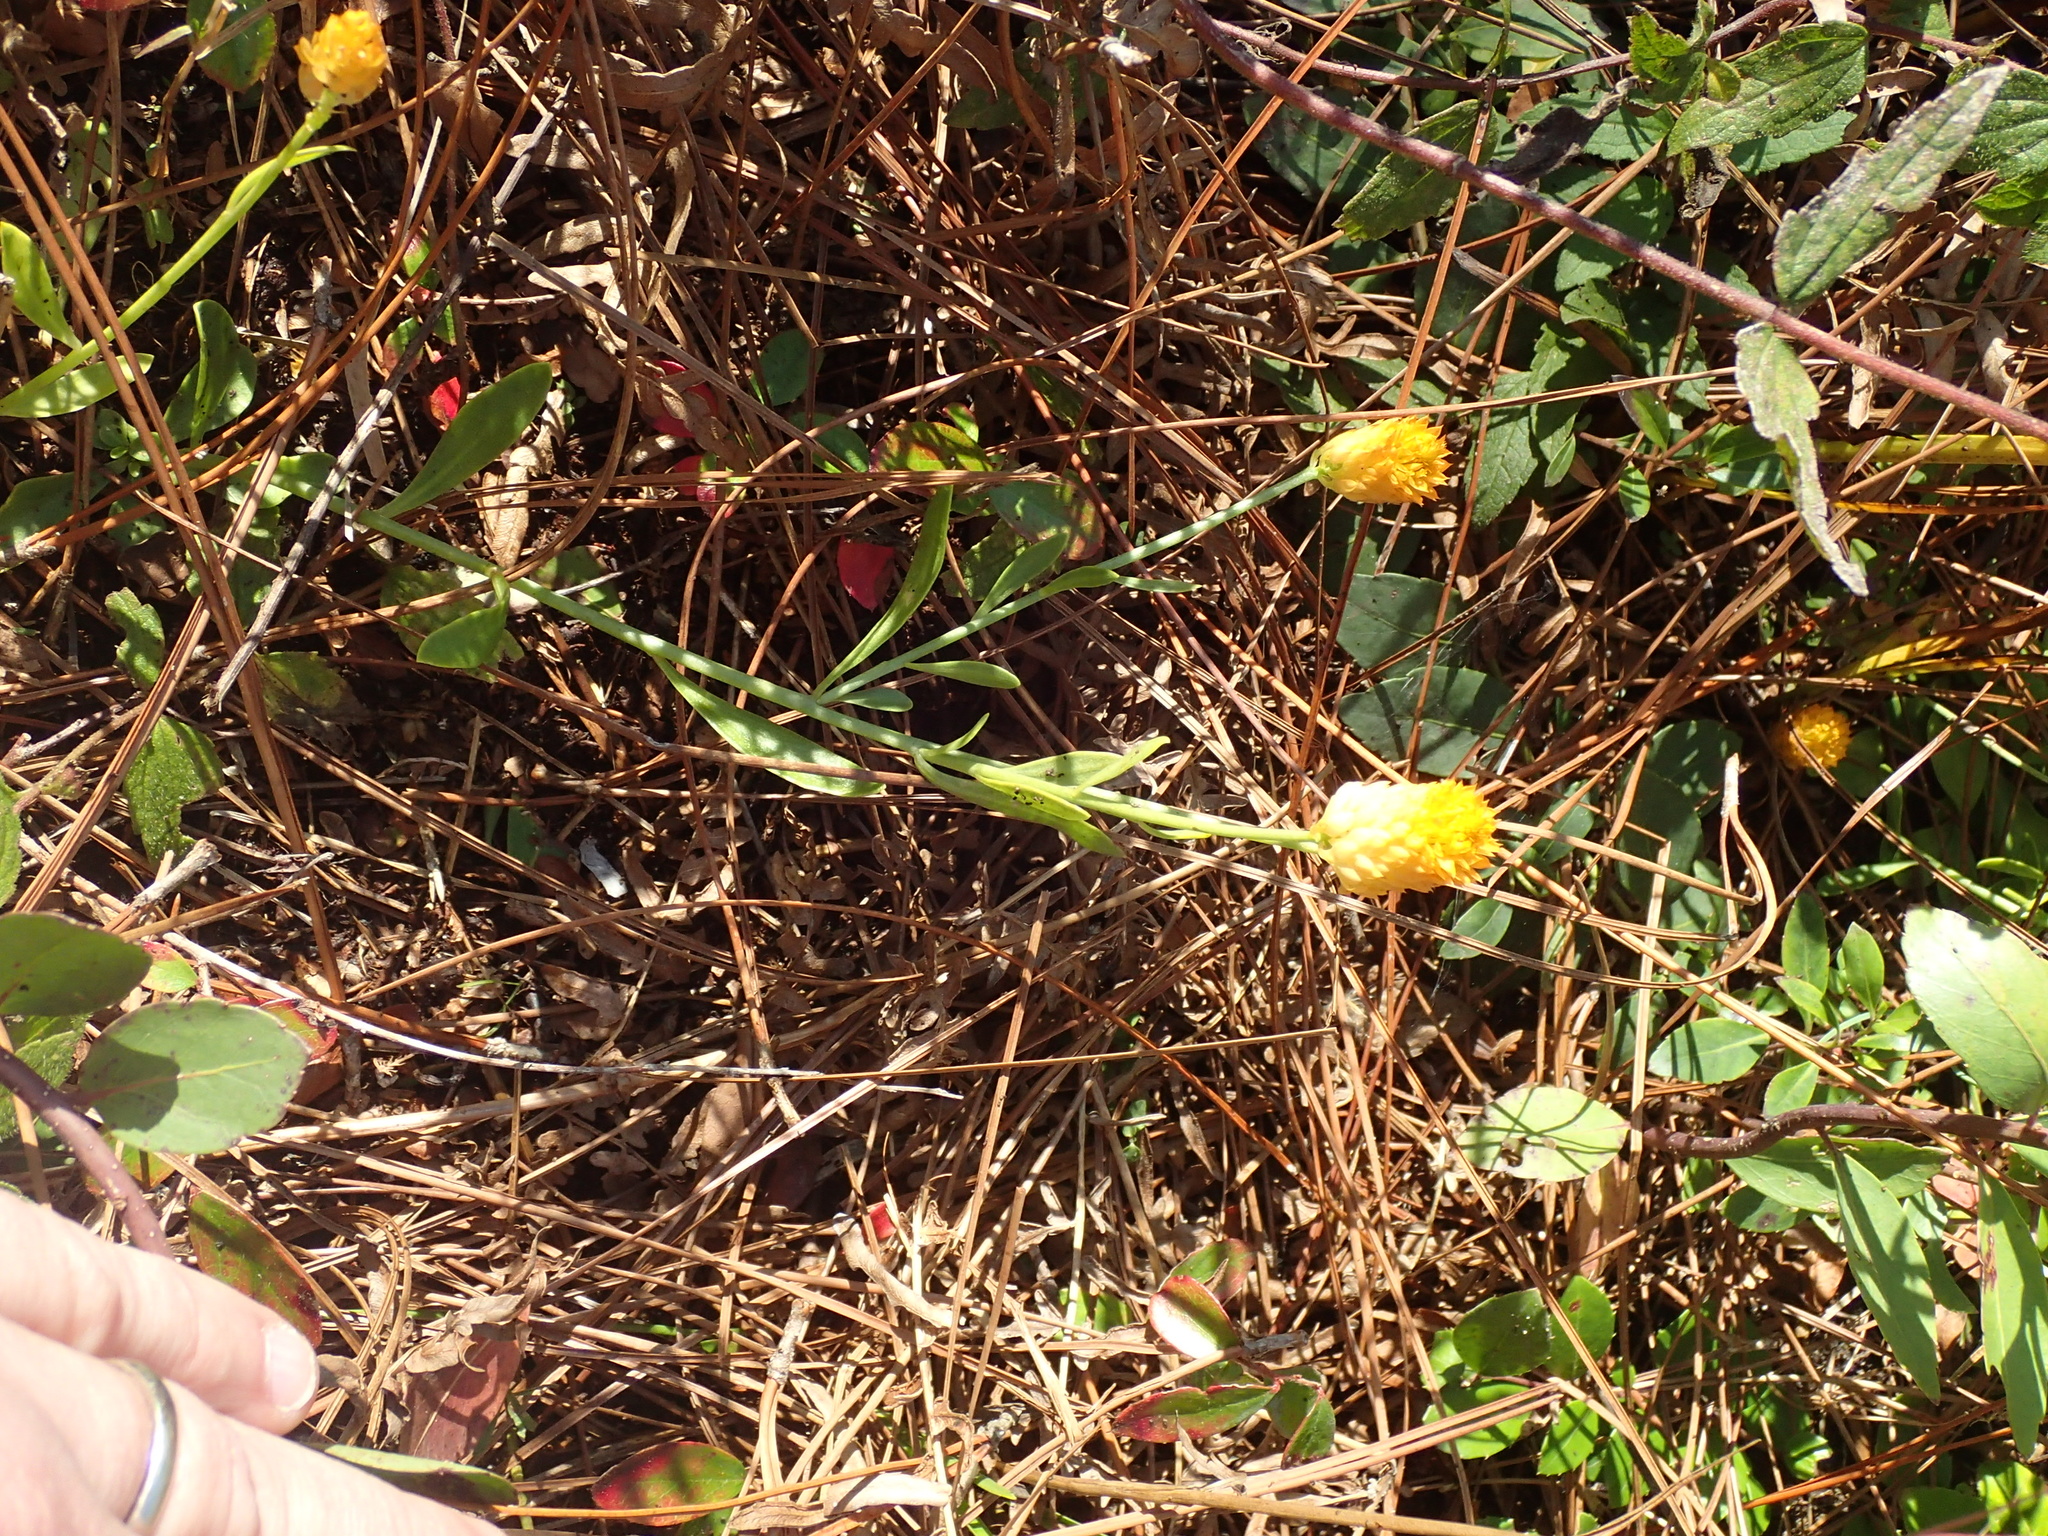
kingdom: Plantae
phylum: Tracheophyta
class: Magnoliopsida
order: Fabales
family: Polygalaceae
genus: Polygala
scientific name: Polygala lutea
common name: Orange milkwort
